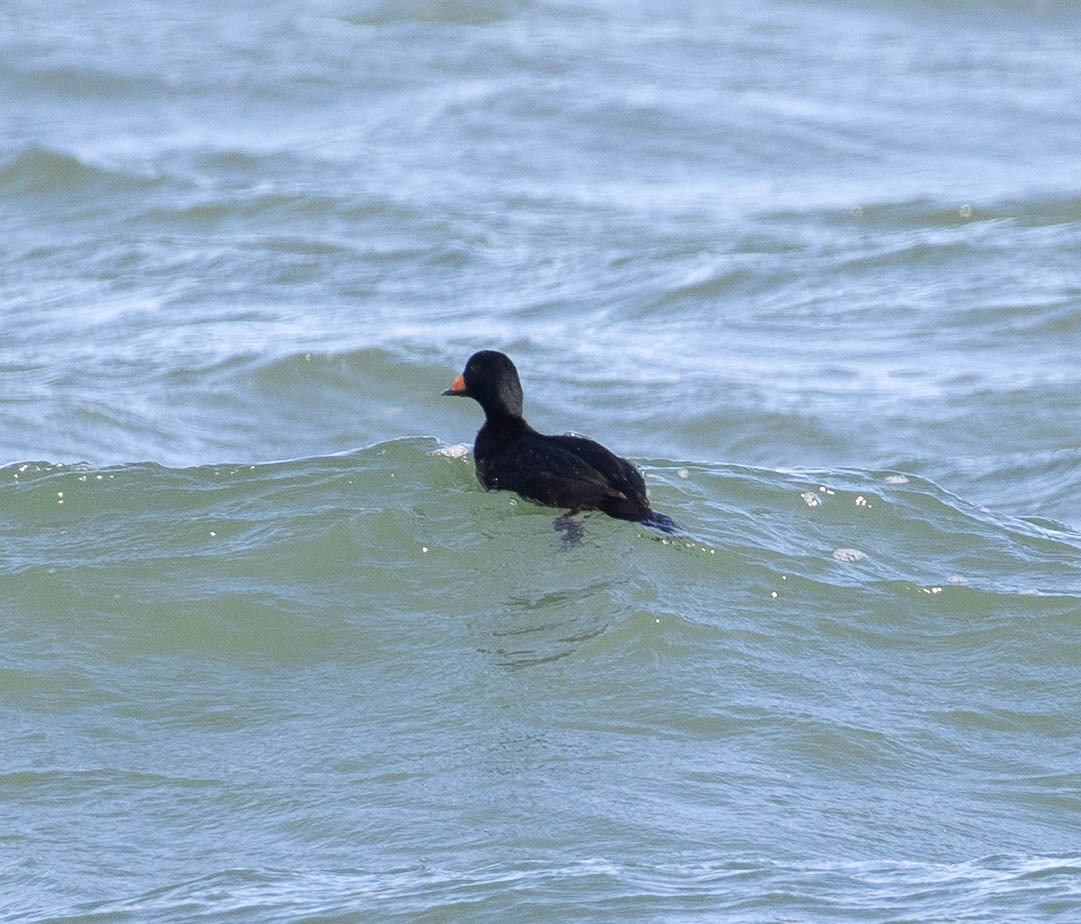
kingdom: Animalia
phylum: Chordata
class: Aves
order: Anseriformes
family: Anatidae
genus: Melanitta
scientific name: Melanitta americana
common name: Black scoter
